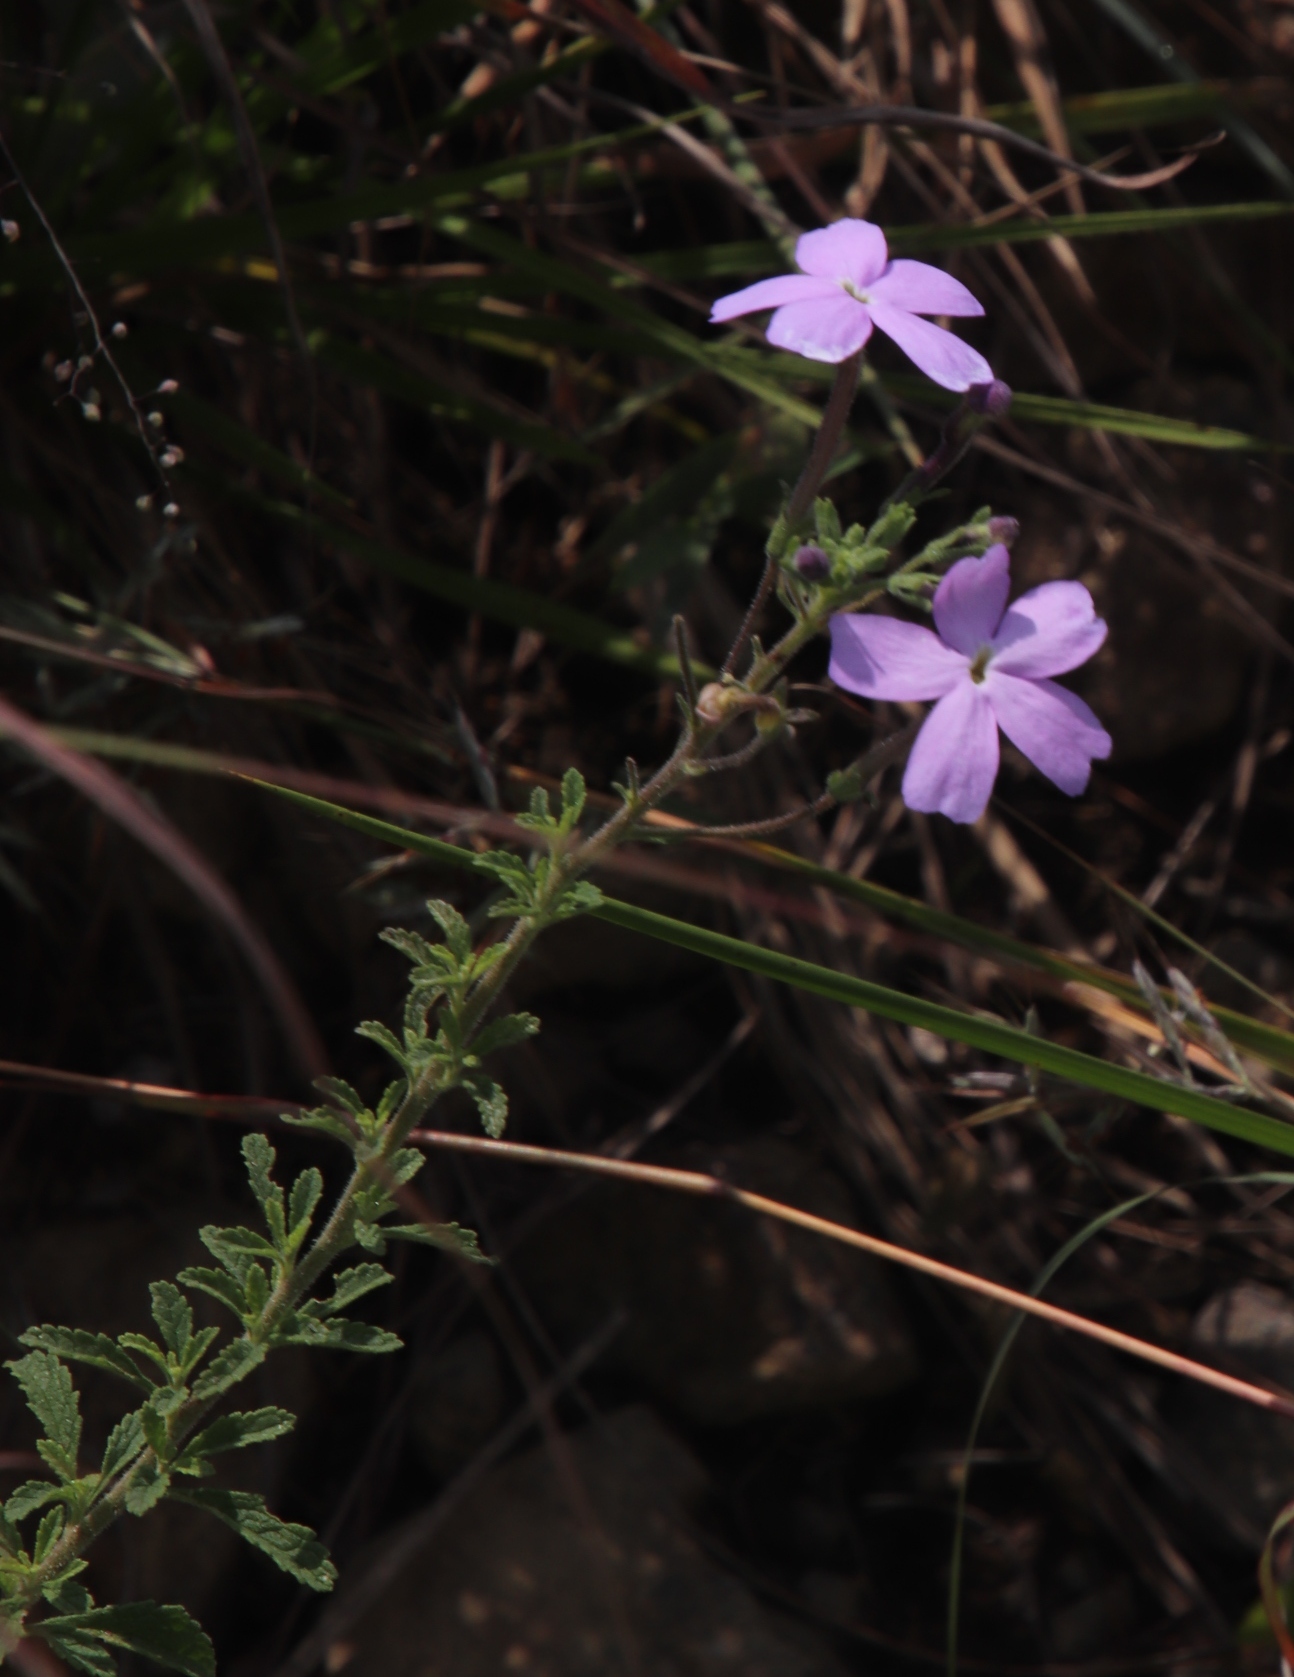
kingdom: Plantae
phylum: Tracheophyta
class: Magnoliopsida
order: Lamiales
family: Scrophulariaceae
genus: Jamesbrittenia
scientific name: Jamesbrittenia grandiflora
